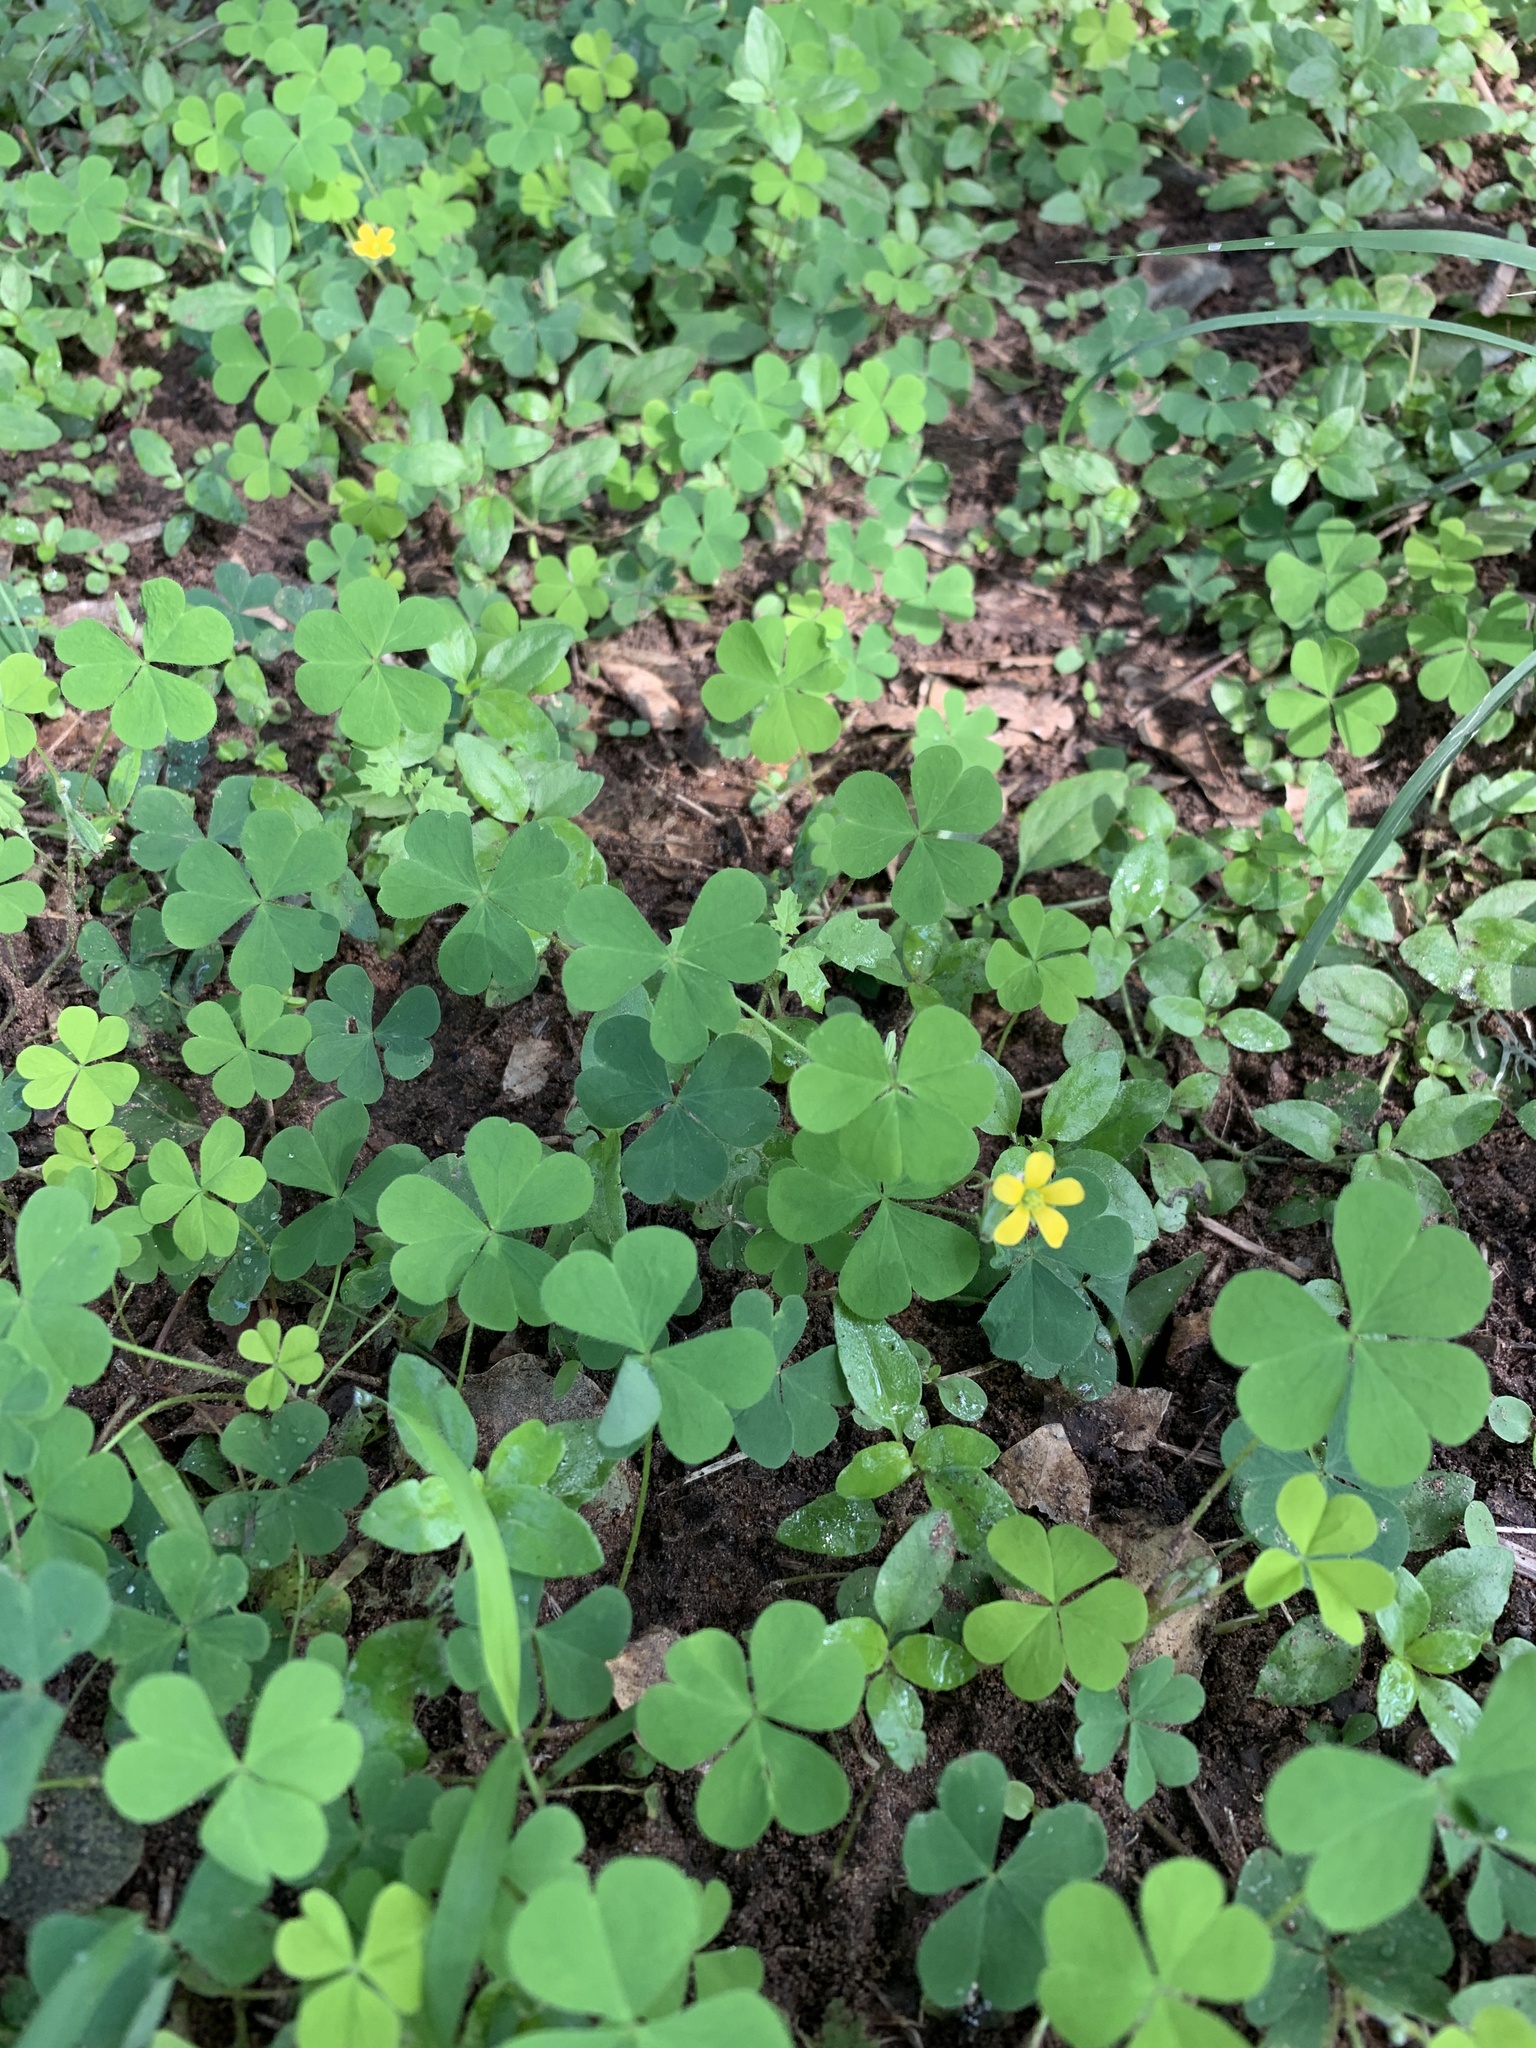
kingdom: Plantae
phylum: Tracheophyta
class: Magnoliopsida
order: Oxalidales
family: Oxalidaceae
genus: Oxalis
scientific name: Oxalis corniculata
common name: Procumbent yellow-sorrel
